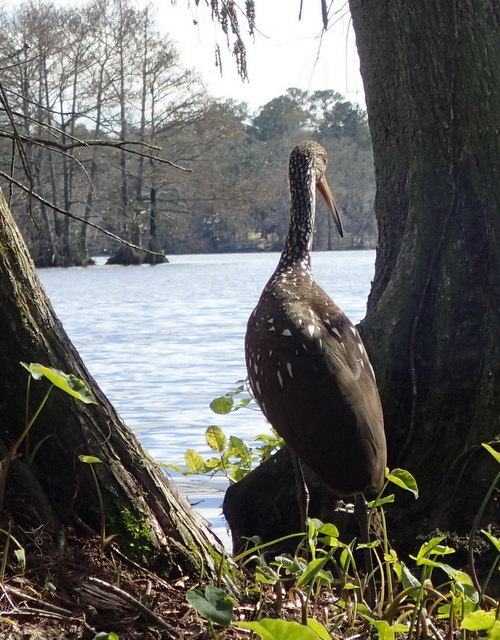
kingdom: Animalia
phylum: Chordata
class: Aves
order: Gruiformes
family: Aramidae
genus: Aramus
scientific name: Aramus guarauna
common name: Limpkin
